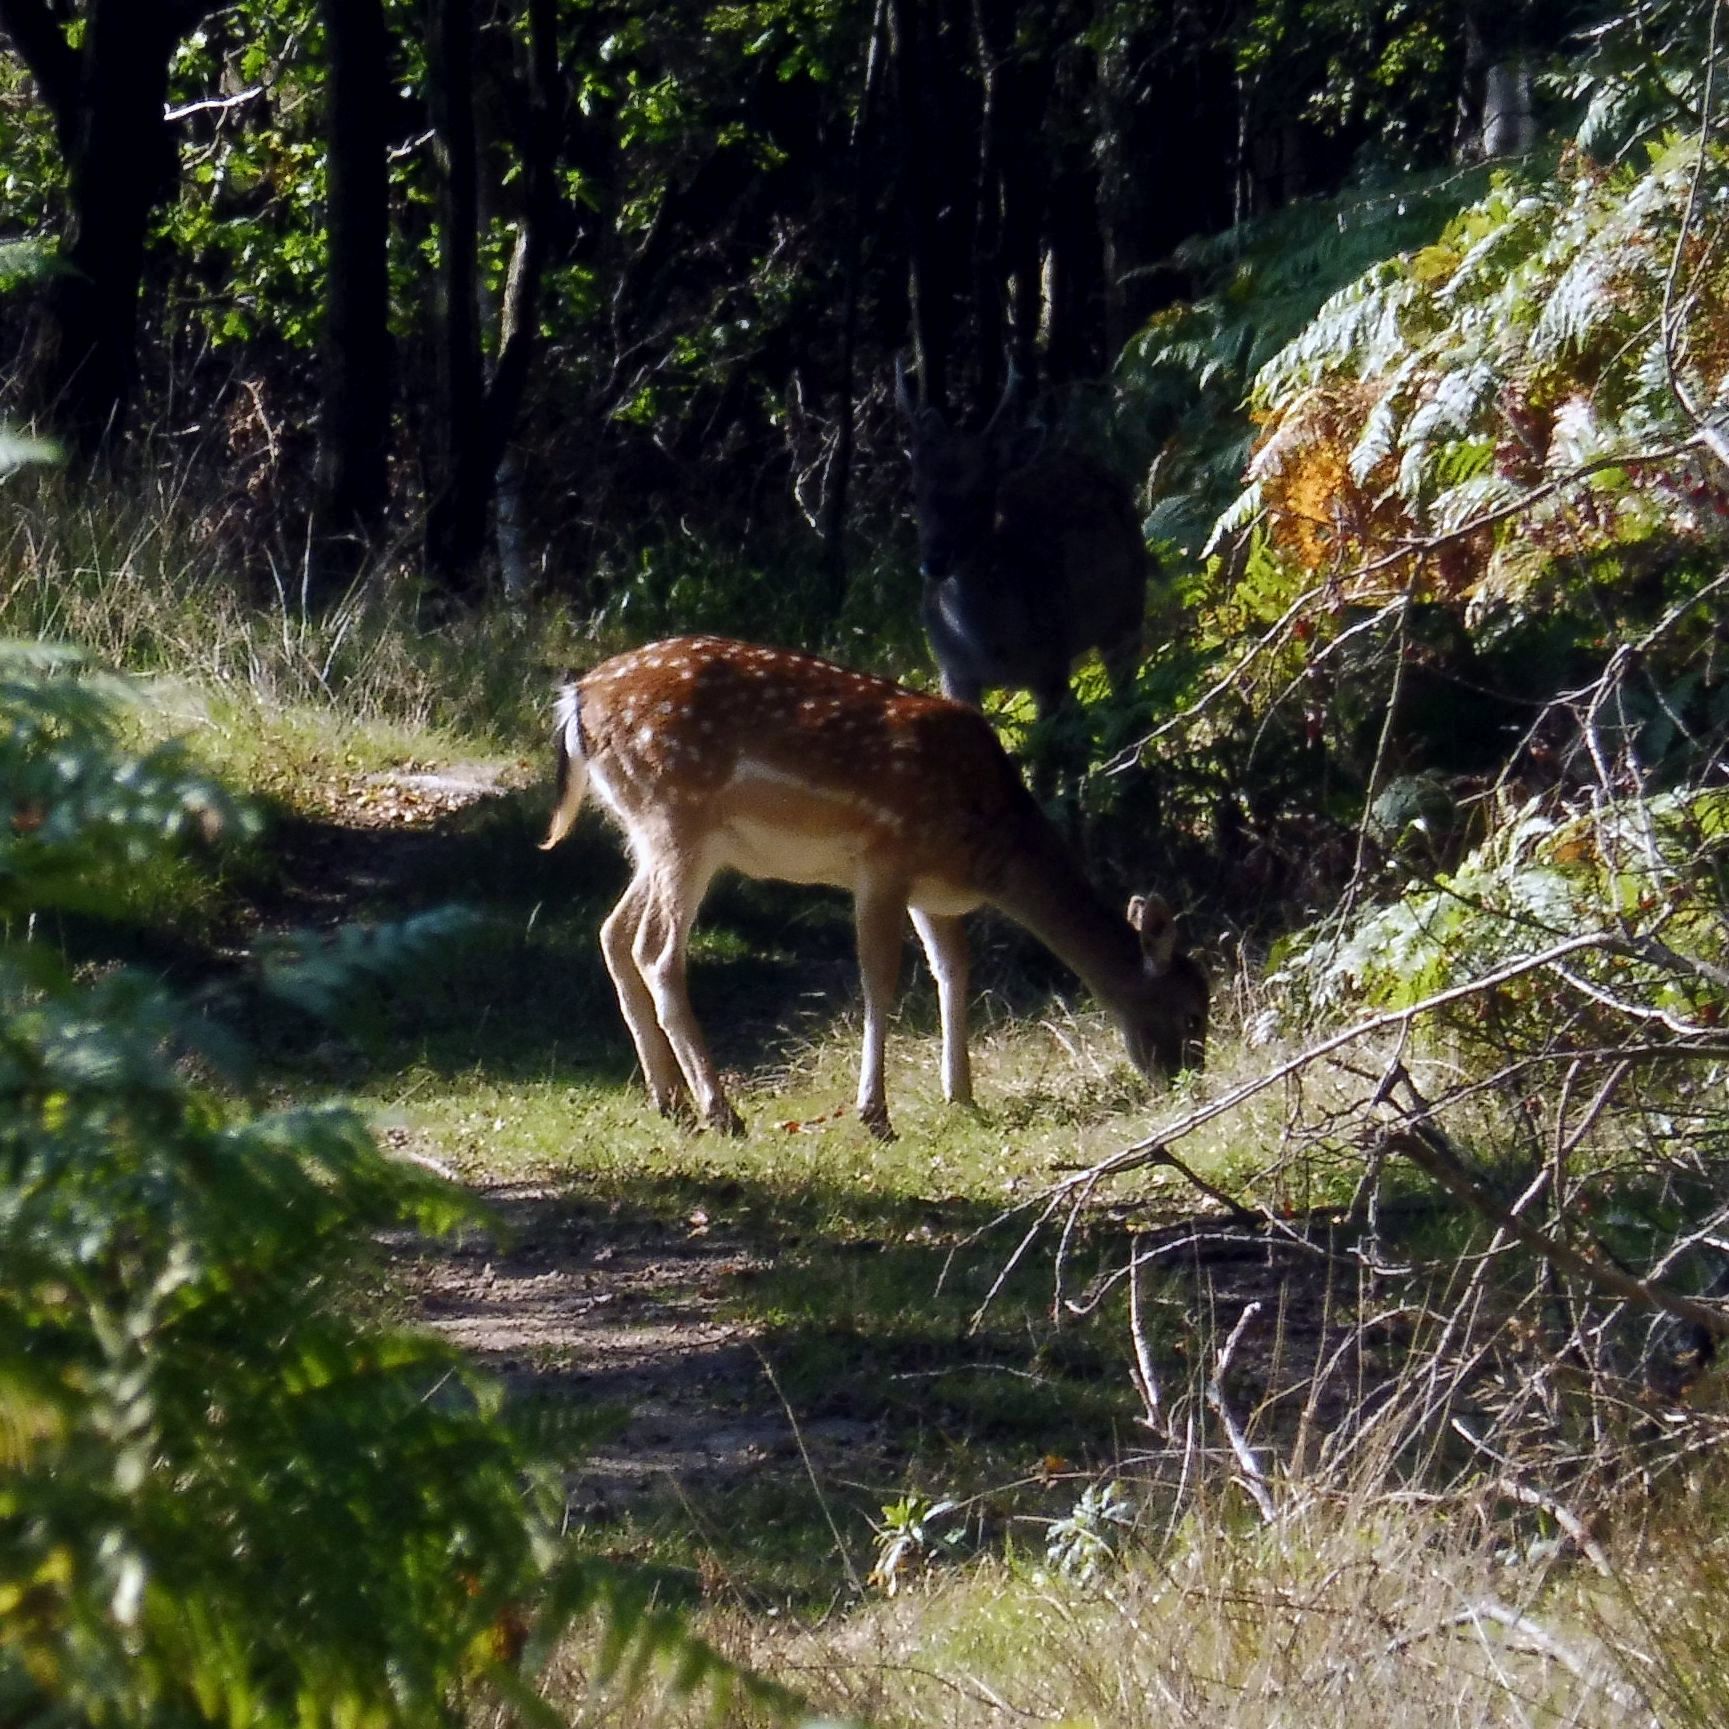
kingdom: Animalia
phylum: Chordata
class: Mammalia
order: Artiodactyla
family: Cervidae
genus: Dama
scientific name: Dama dama
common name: Fallow deer
